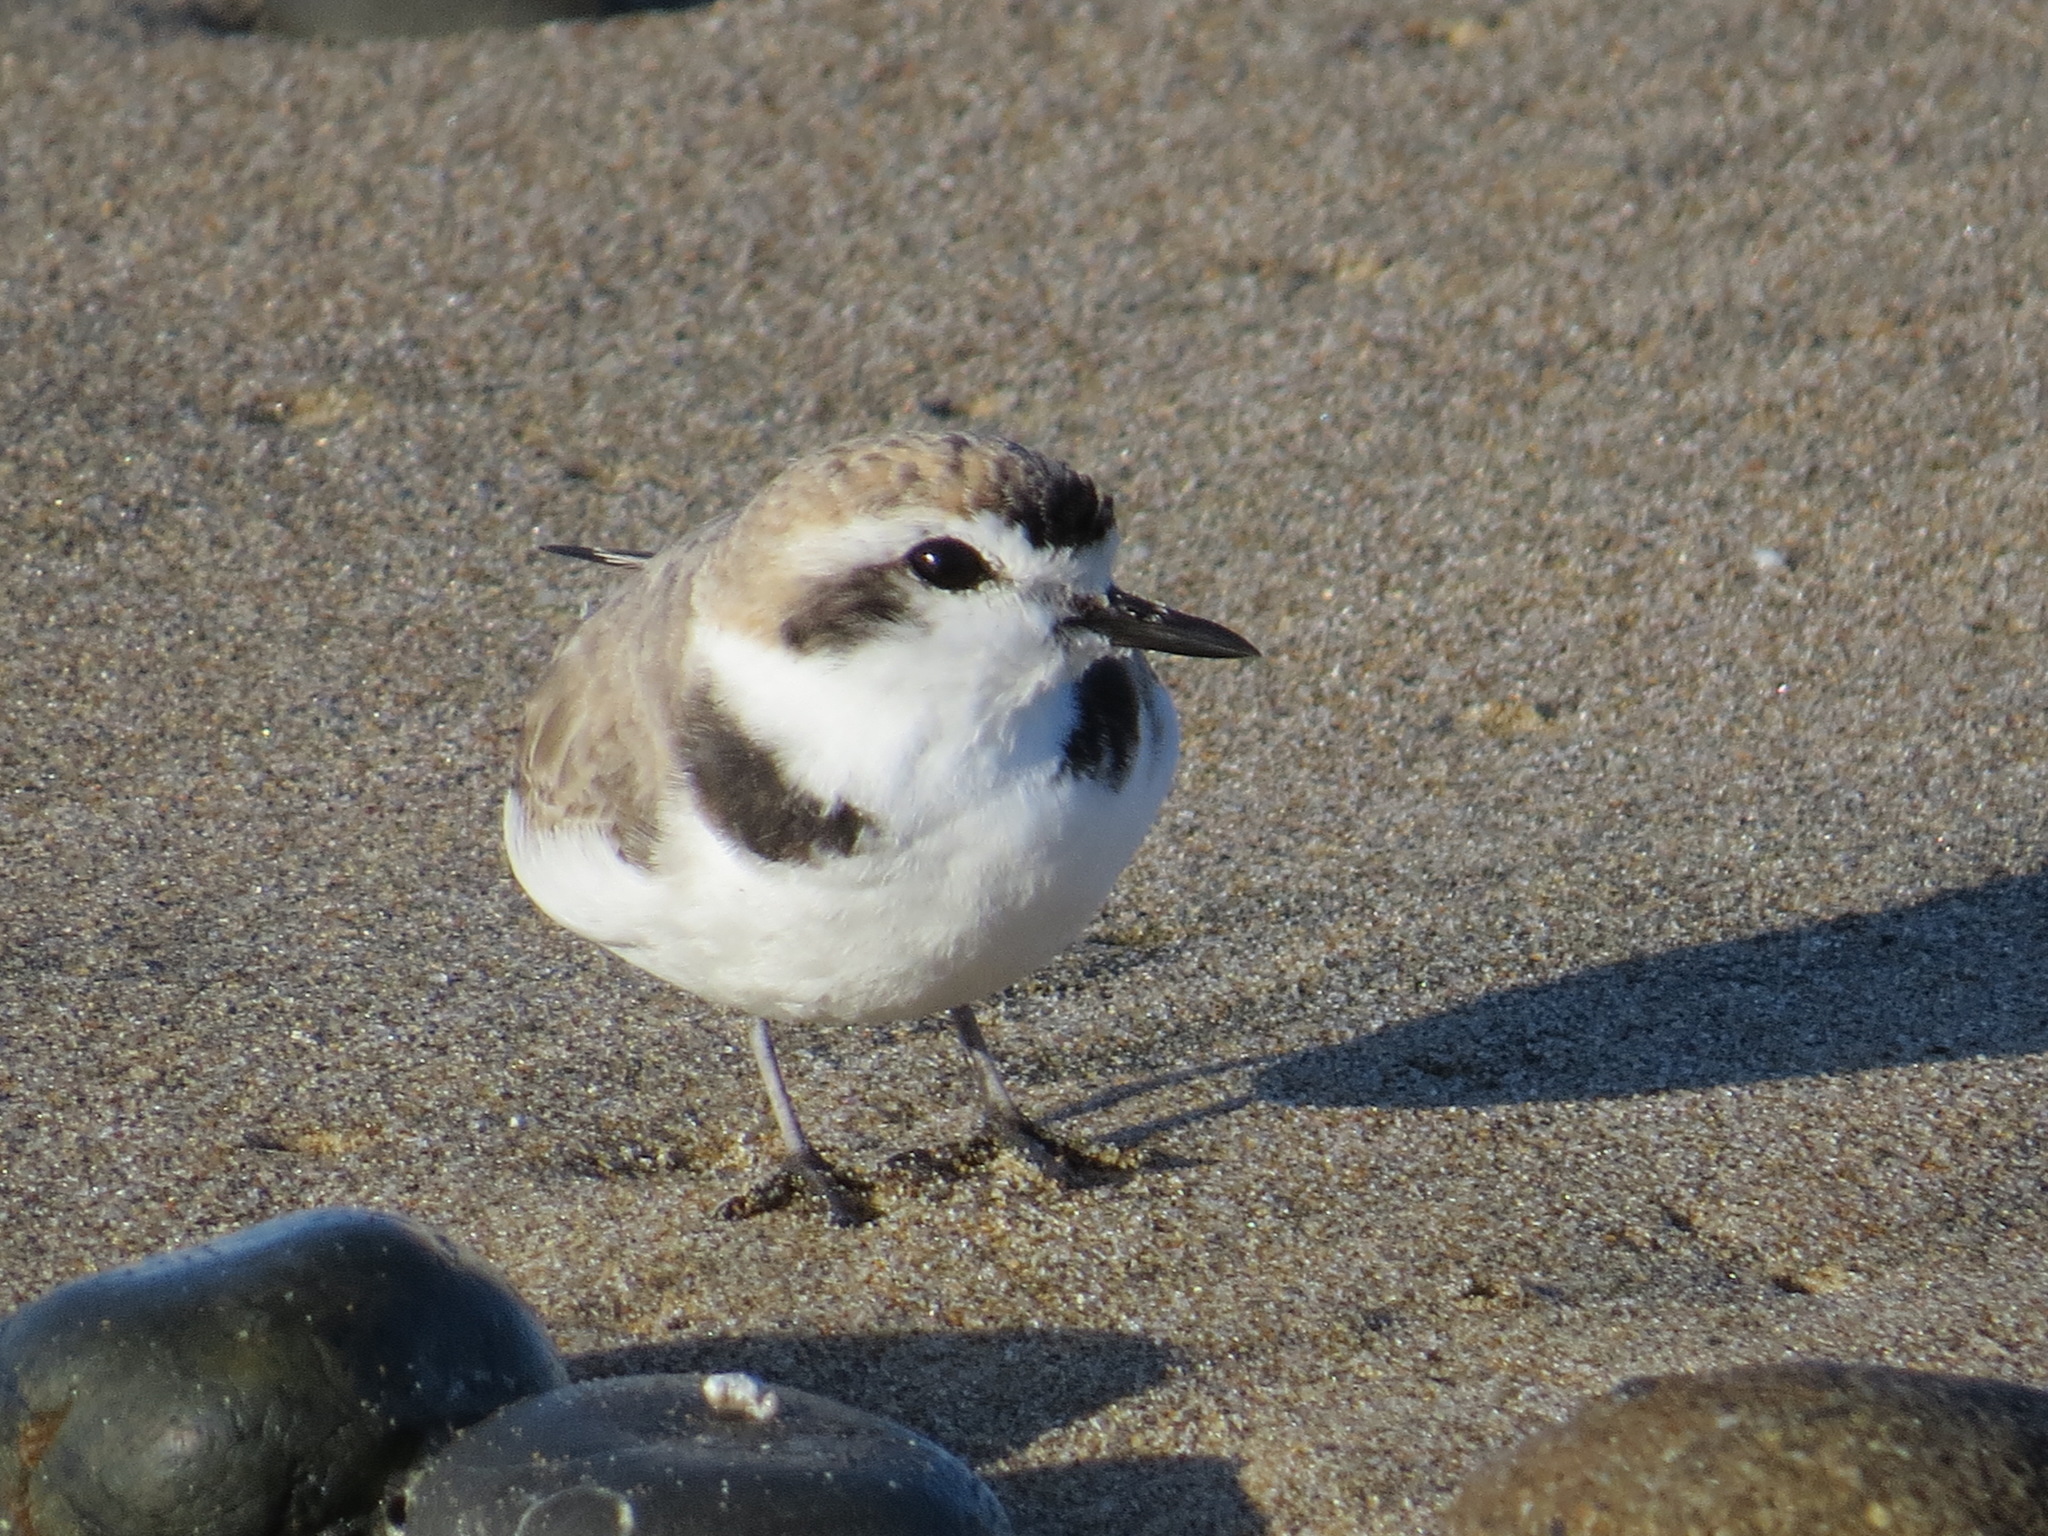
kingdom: Animalia
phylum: Chordata
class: Aves
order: Charadriiformes
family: Charadriidae
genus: Anarhynchus
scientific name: Anarhynchus
